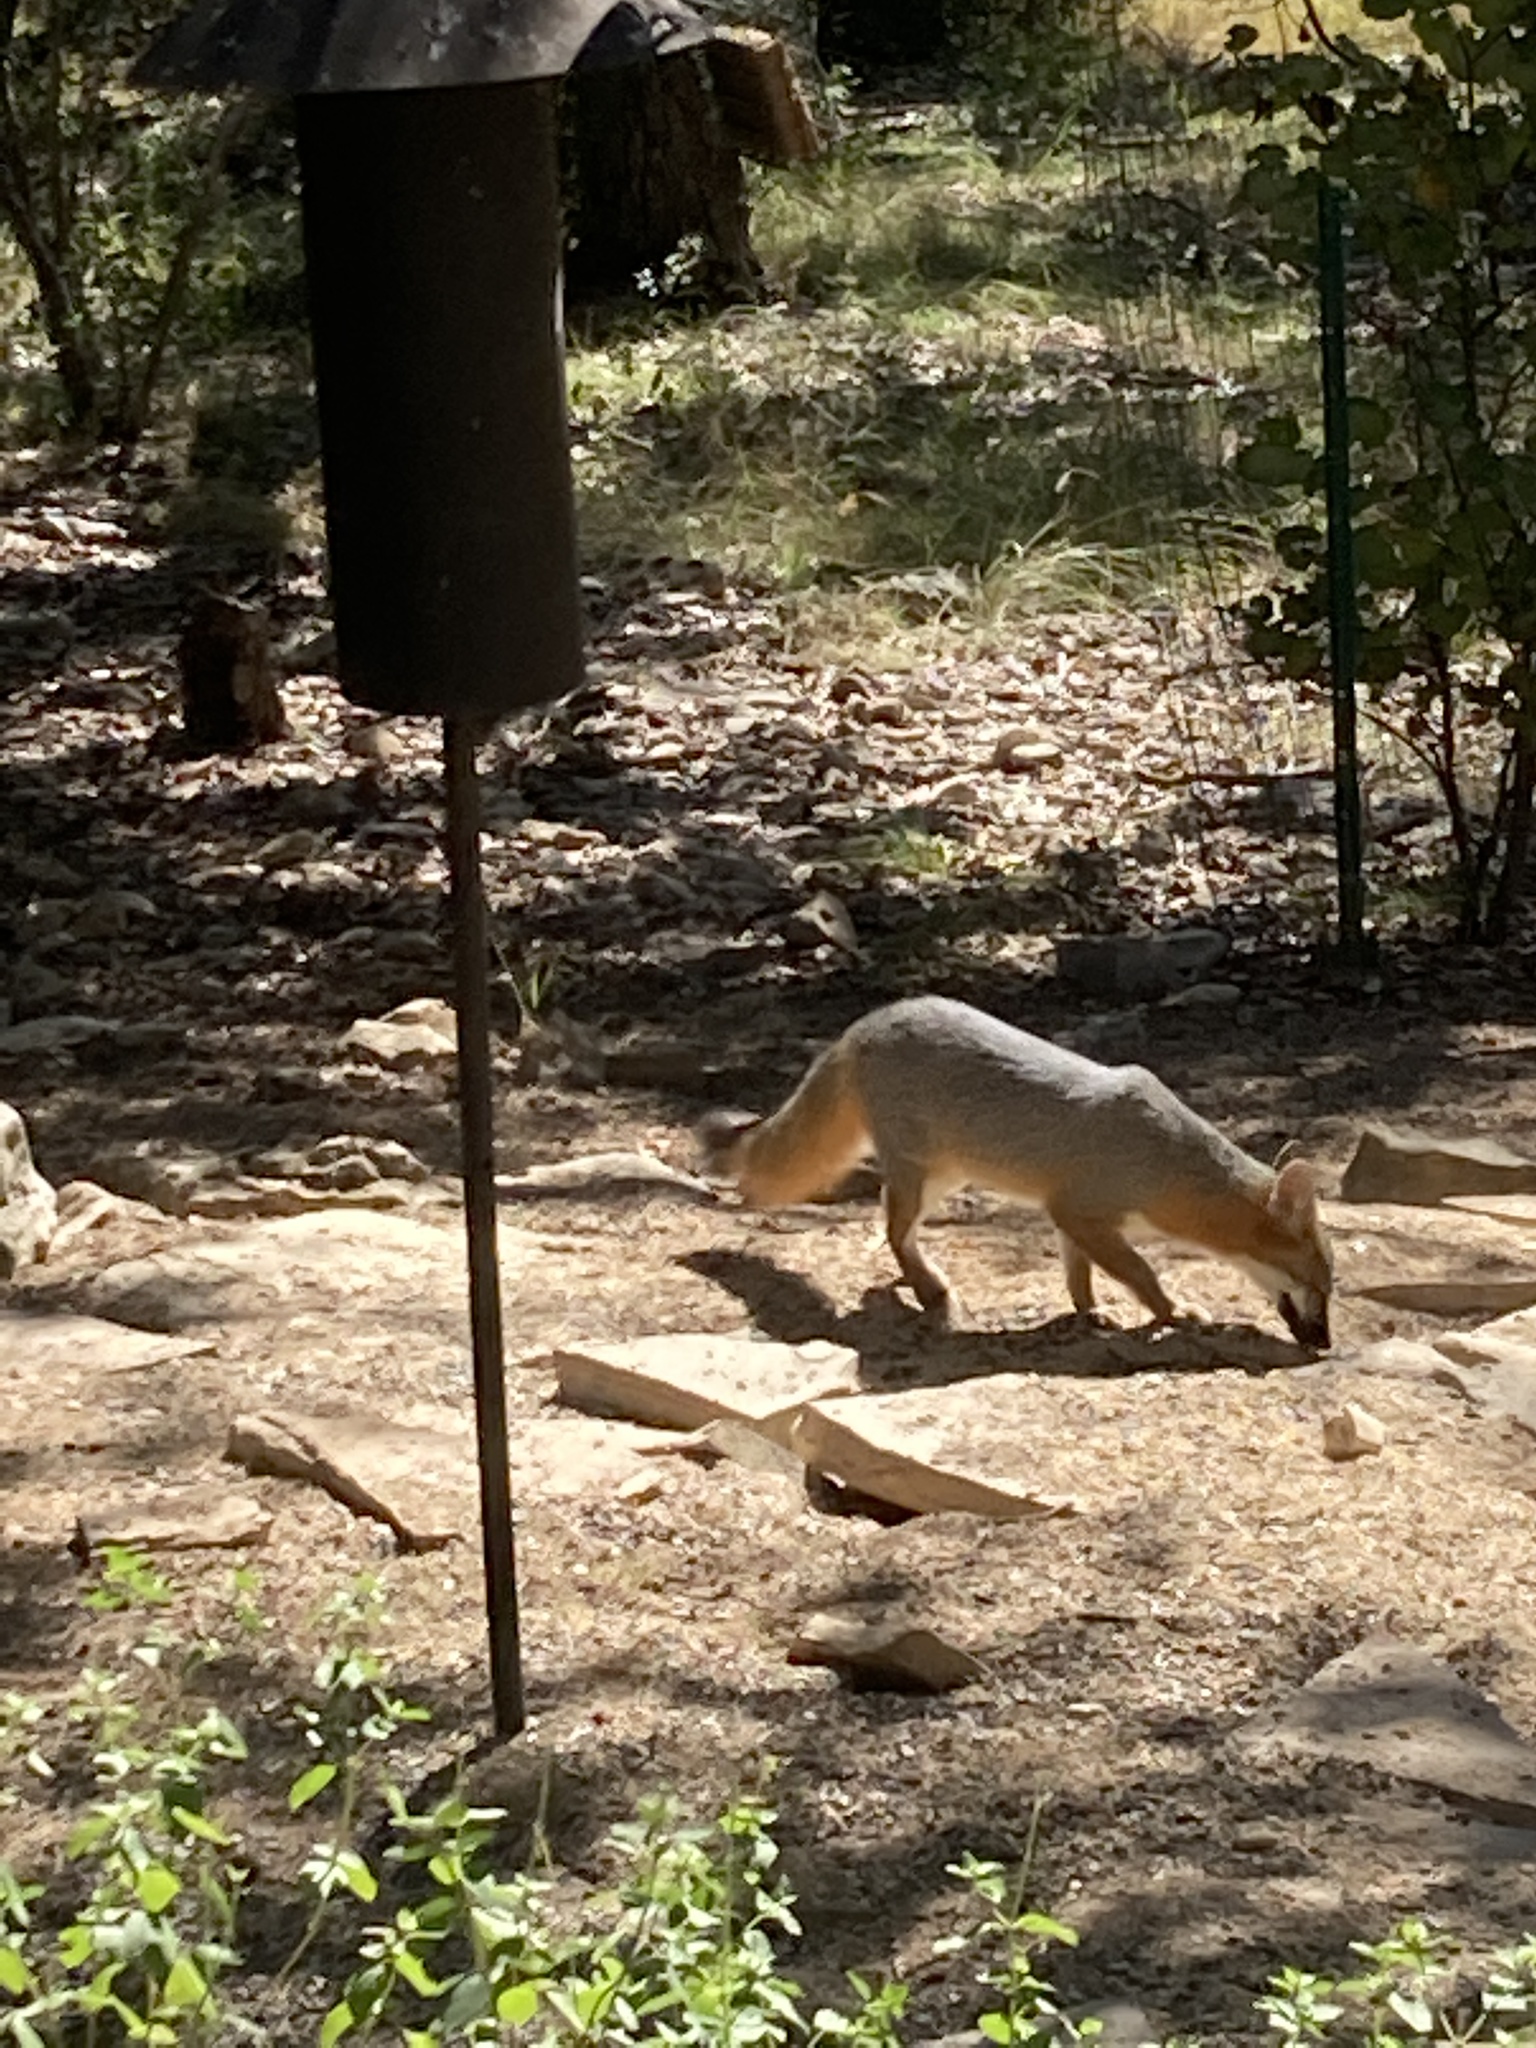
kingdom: Animalia
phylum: Chordata
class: Mammalia
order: Carnivora
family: Canidae
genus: Urocyon
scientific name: Urocyon cinereoargenteus
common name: Gray fox
